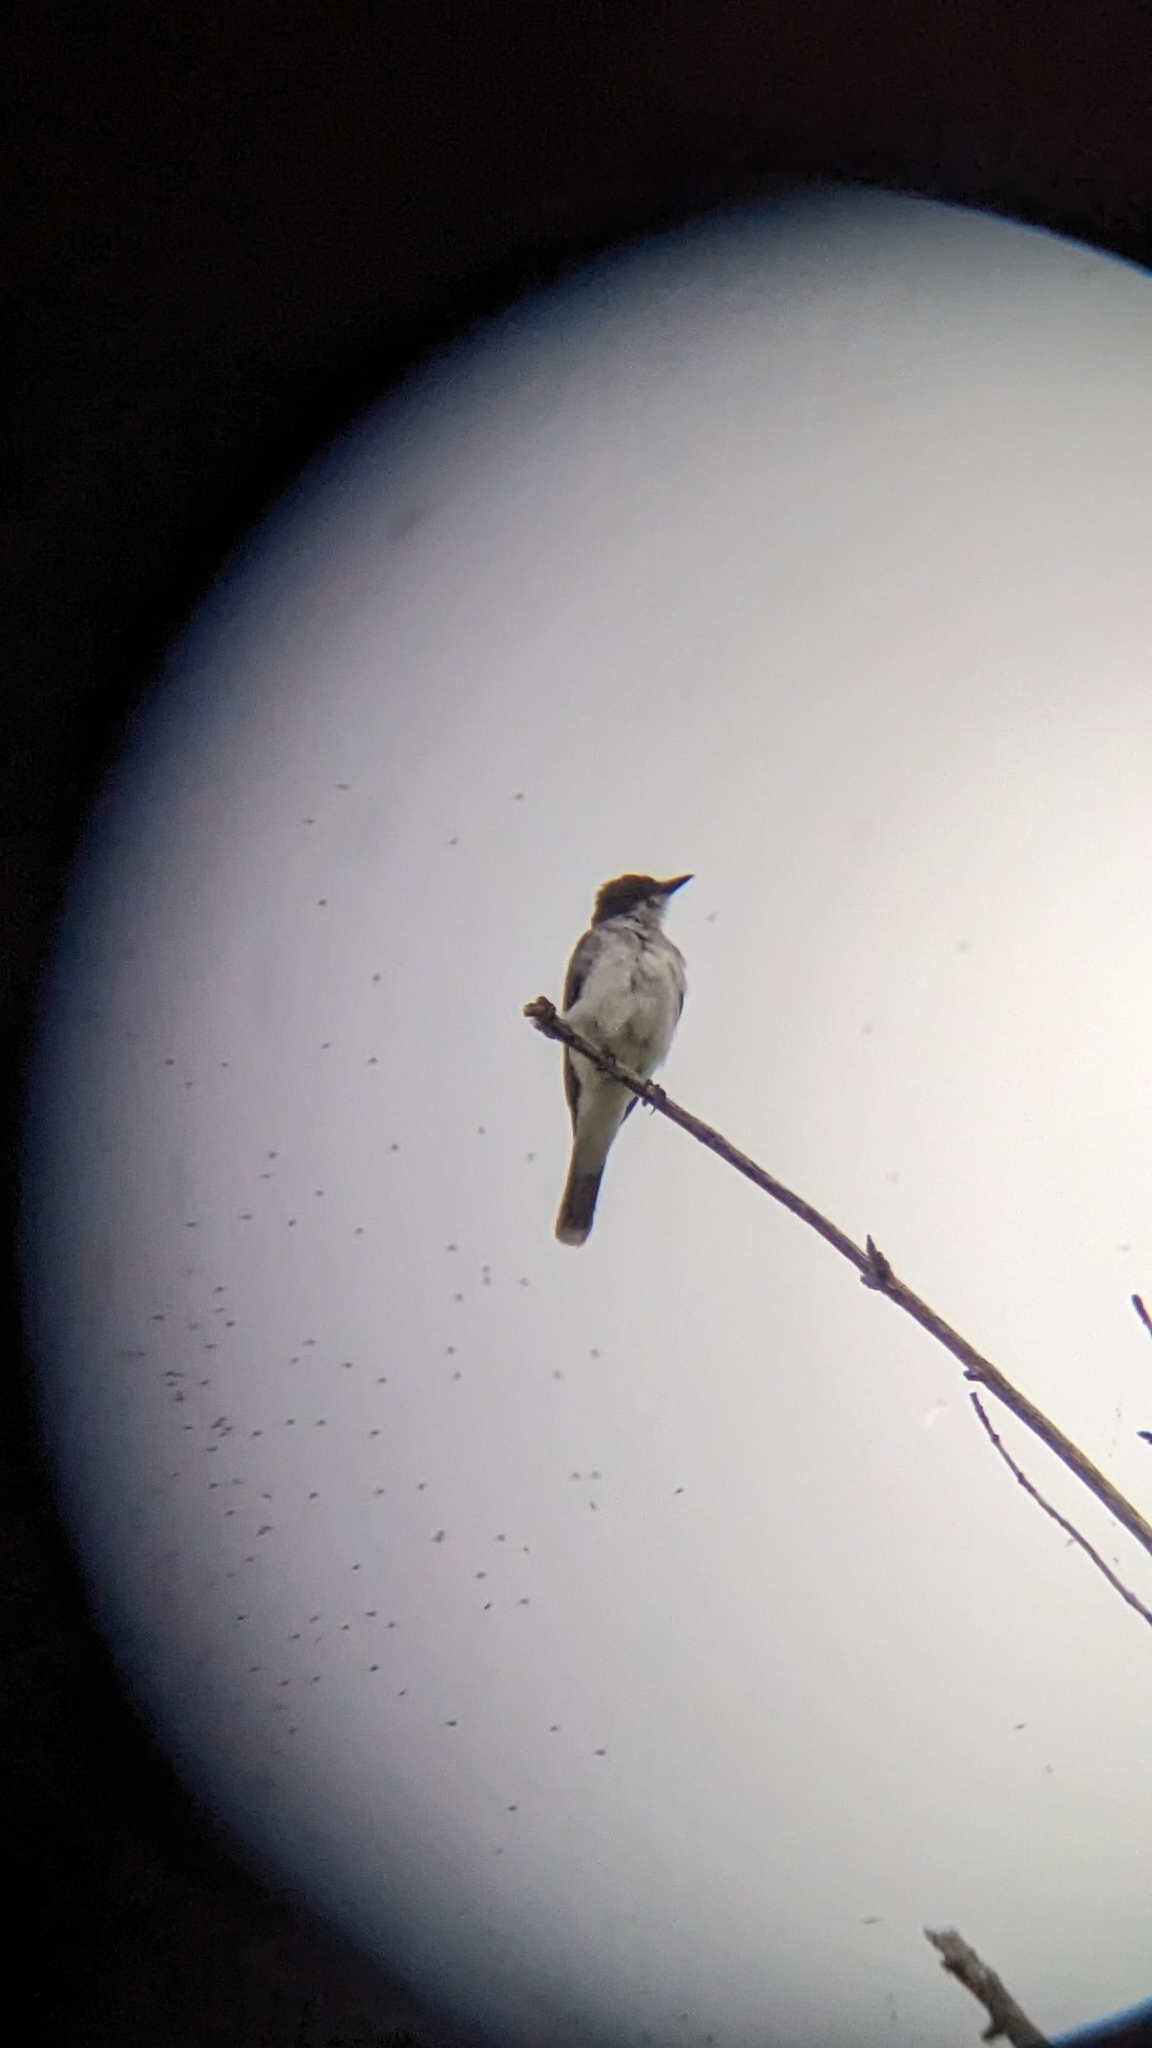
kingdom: Animalia
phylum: Chordata
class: Aves
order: Passeriformes
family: Tyrannidae
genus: Tyrannus
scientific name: Tyrannus tyrannus
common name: Eastern kingbird
